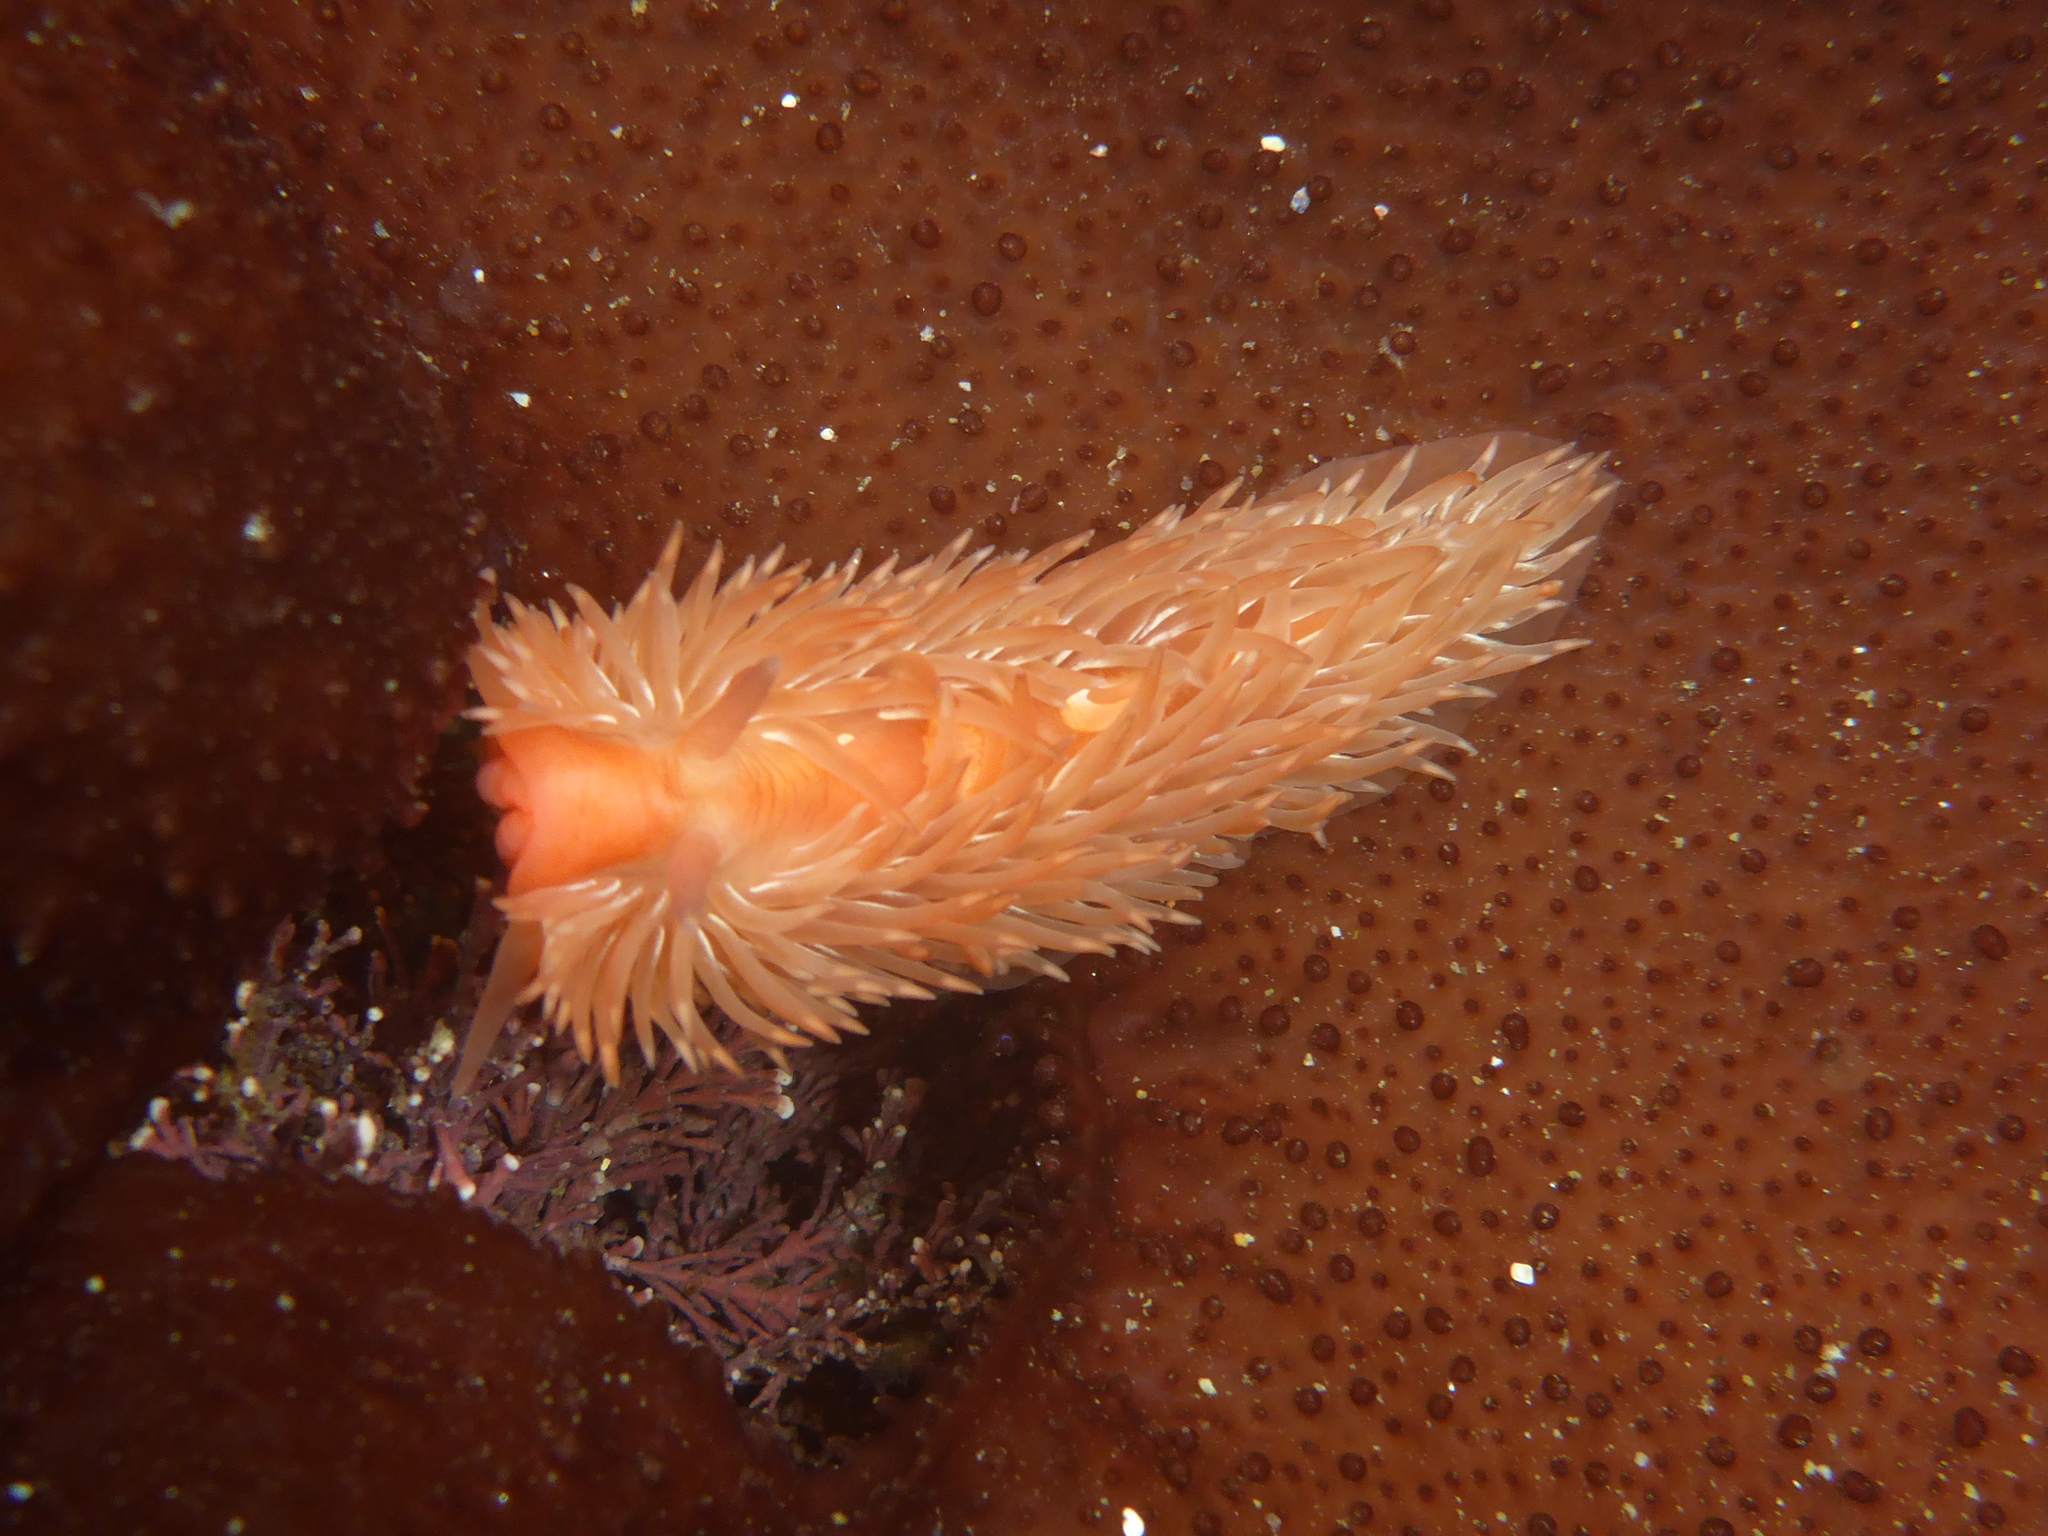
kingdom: Animalia
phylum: Mollusca
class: Gastropoda
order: Nudibranchia
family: Aeolidiidae
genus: Aeolidia
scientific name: Aeolidia loui
